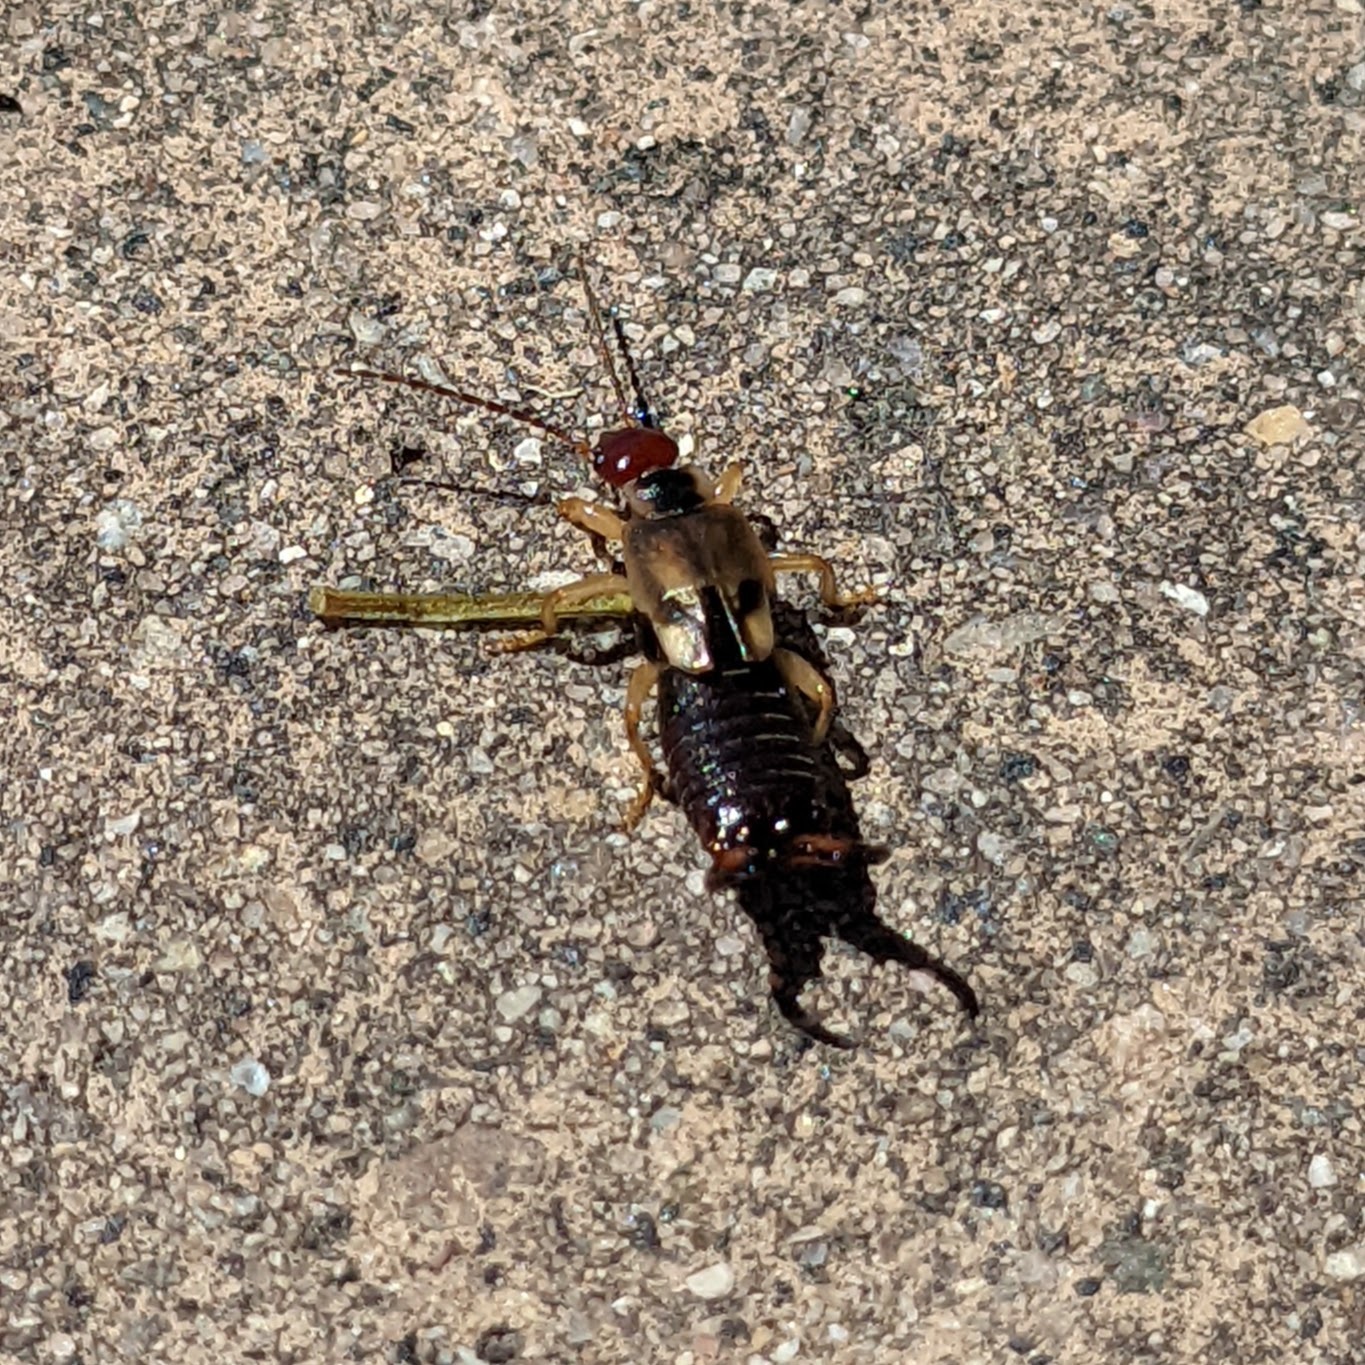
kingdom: Animalia
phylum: Arthropoda
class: Insecta
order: Dermaptera
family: Forficulidae
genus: Forficula
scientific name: Forficula
